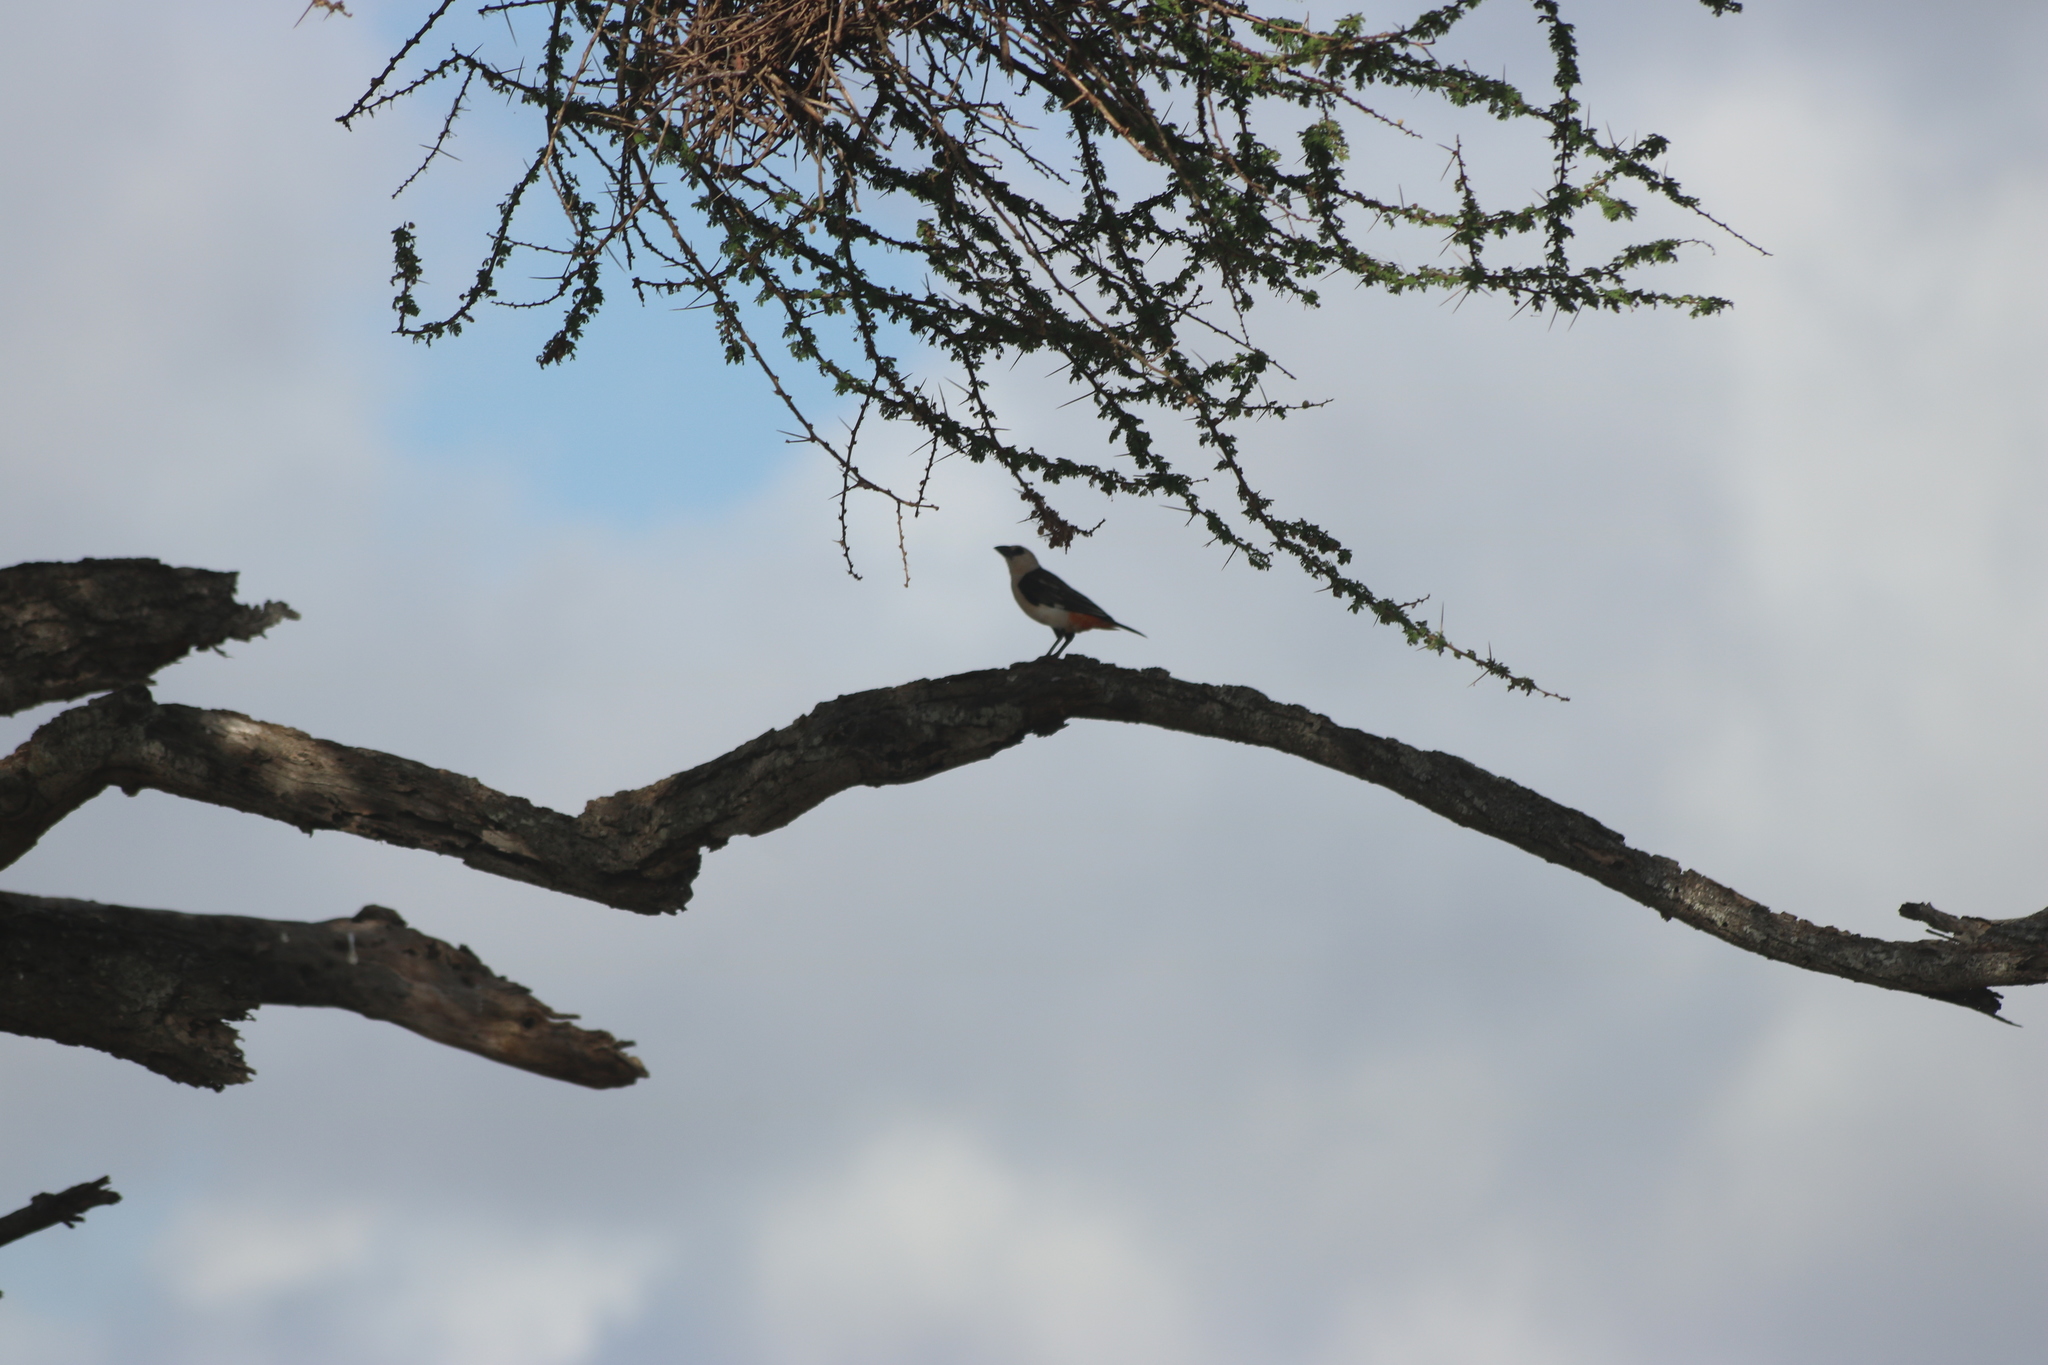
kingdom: Animalia
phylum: Chordata
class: Aves
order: Passeriformes
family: Ploceidae
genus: Dinemellia
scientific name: Dinemellia dinemelli
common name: White-headed buffalo weaver
